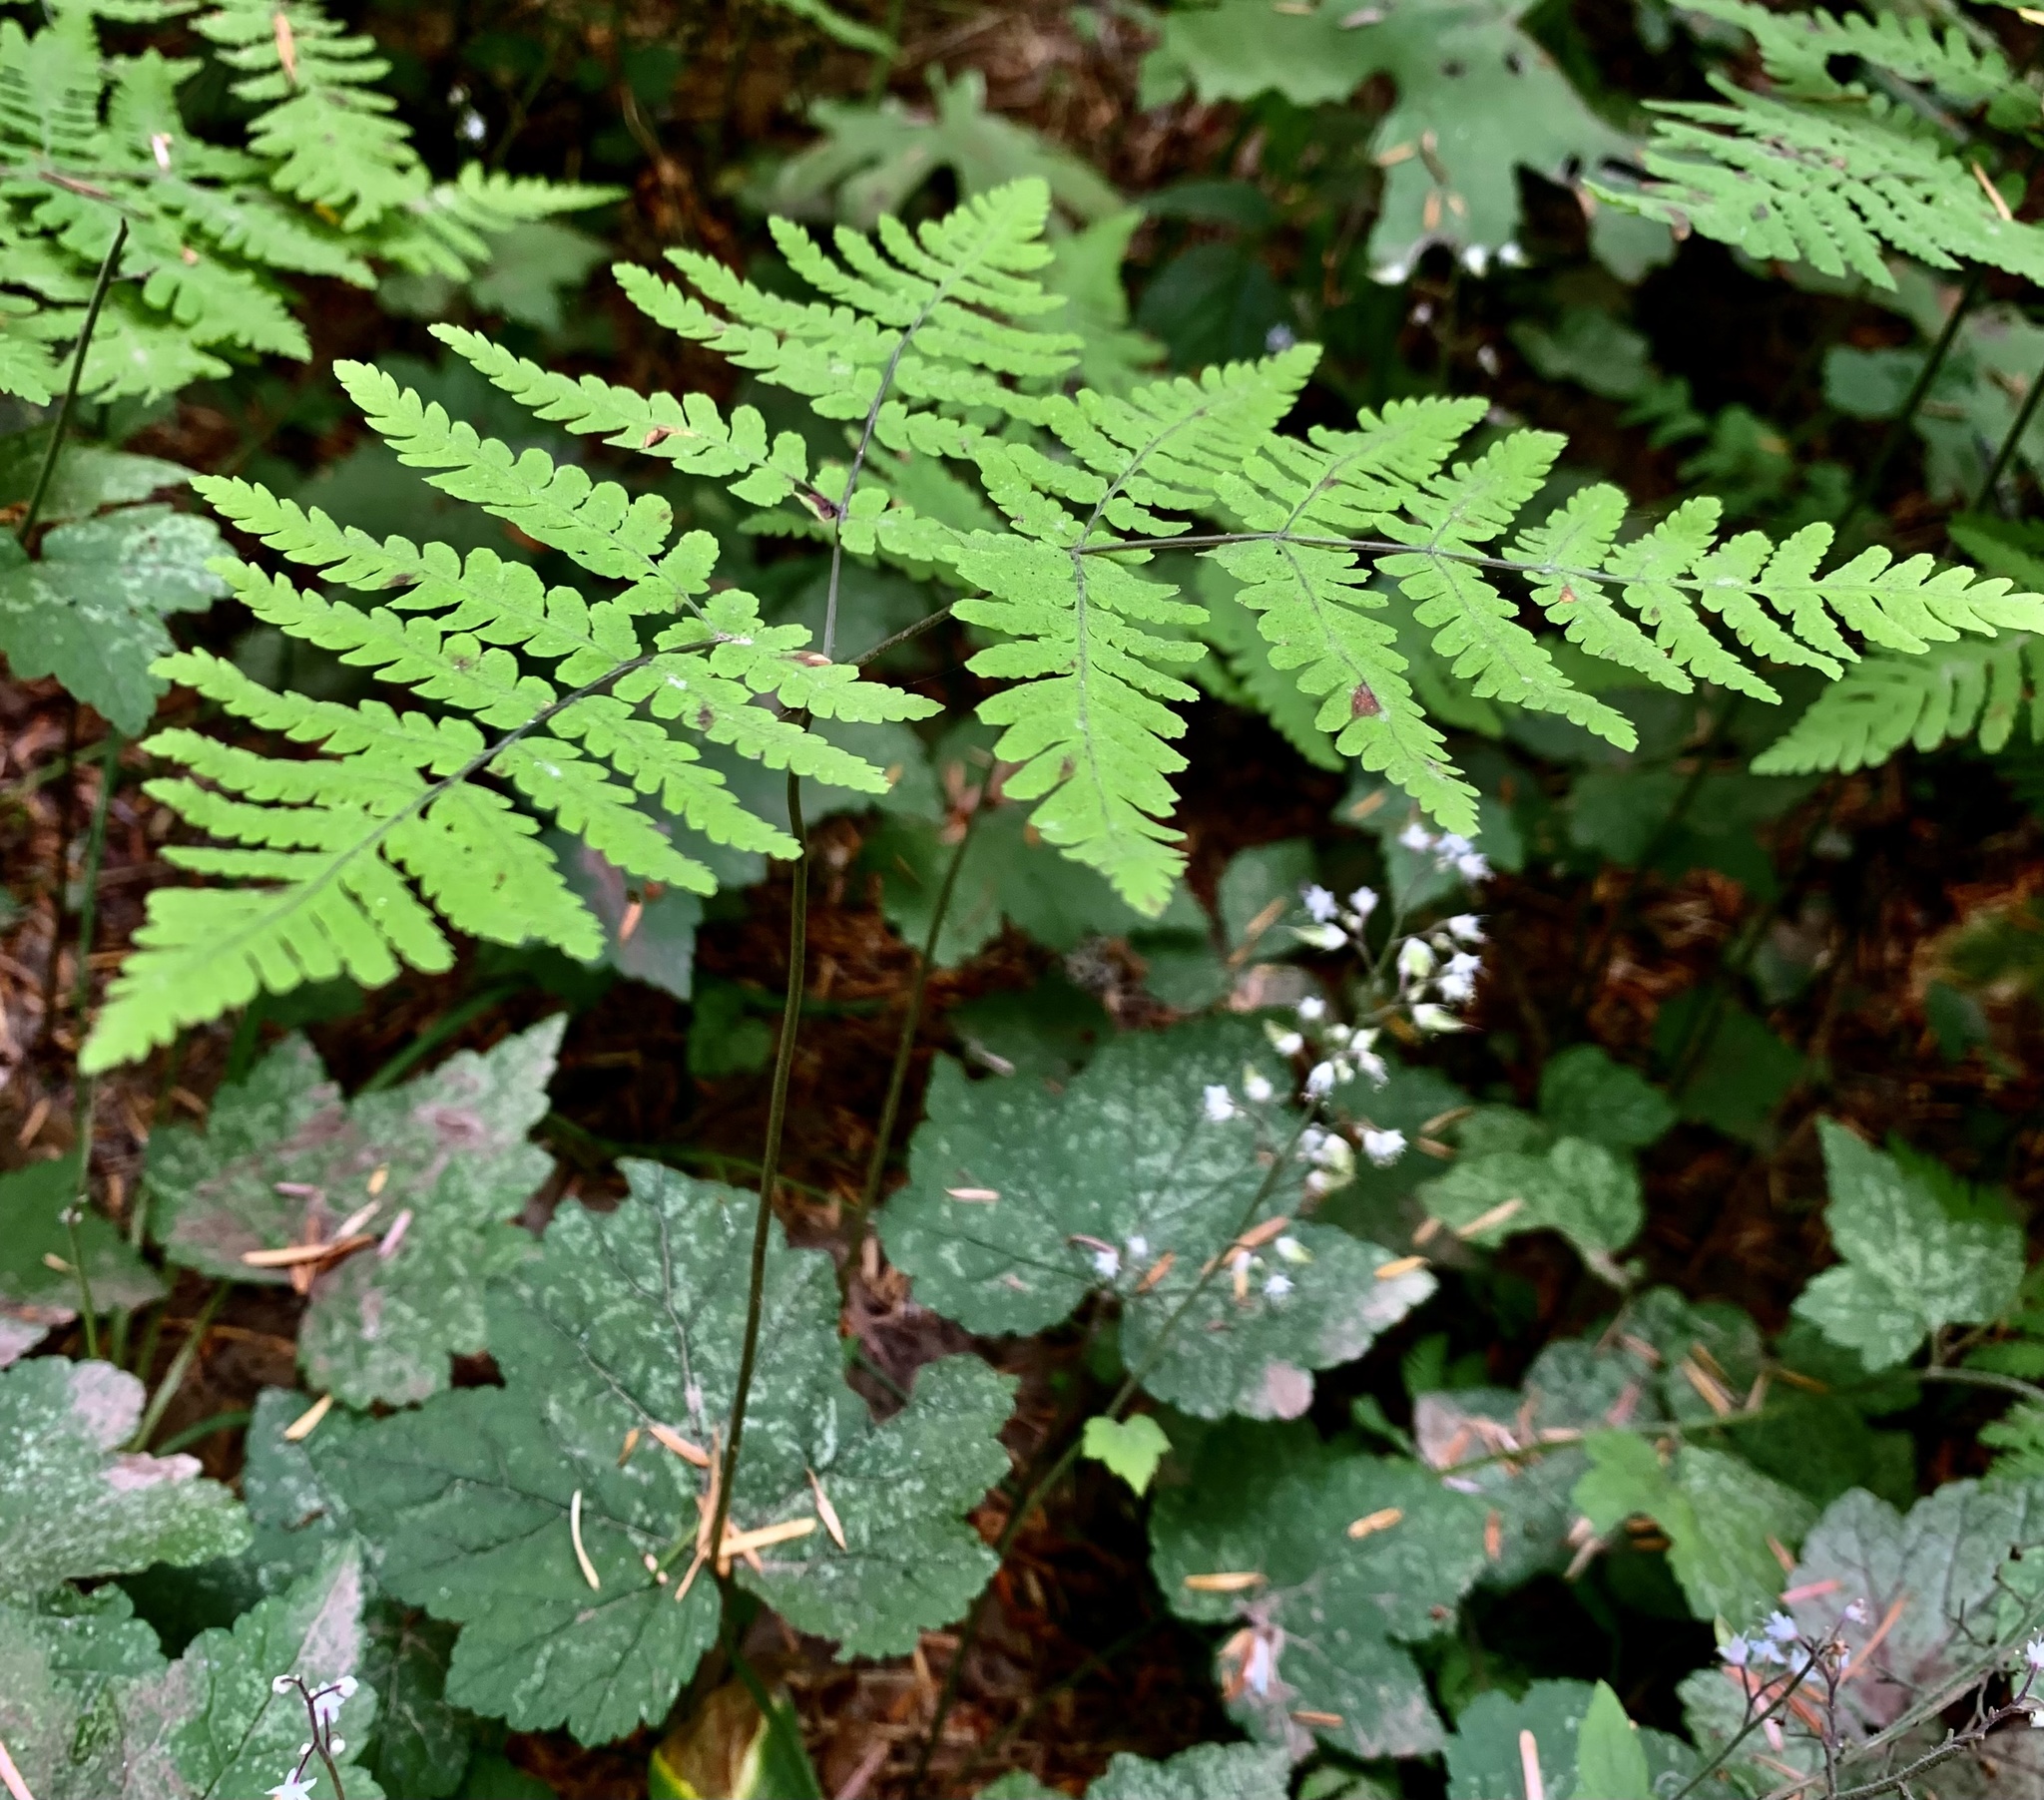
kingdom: Plantae
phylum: Tracheophyta
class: Polypodiopsida
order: Polypodiales
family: Cystopteridaceae
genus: Gymnocarpium
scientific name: Gymnocarpium disjunctum
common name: Western oak fern
